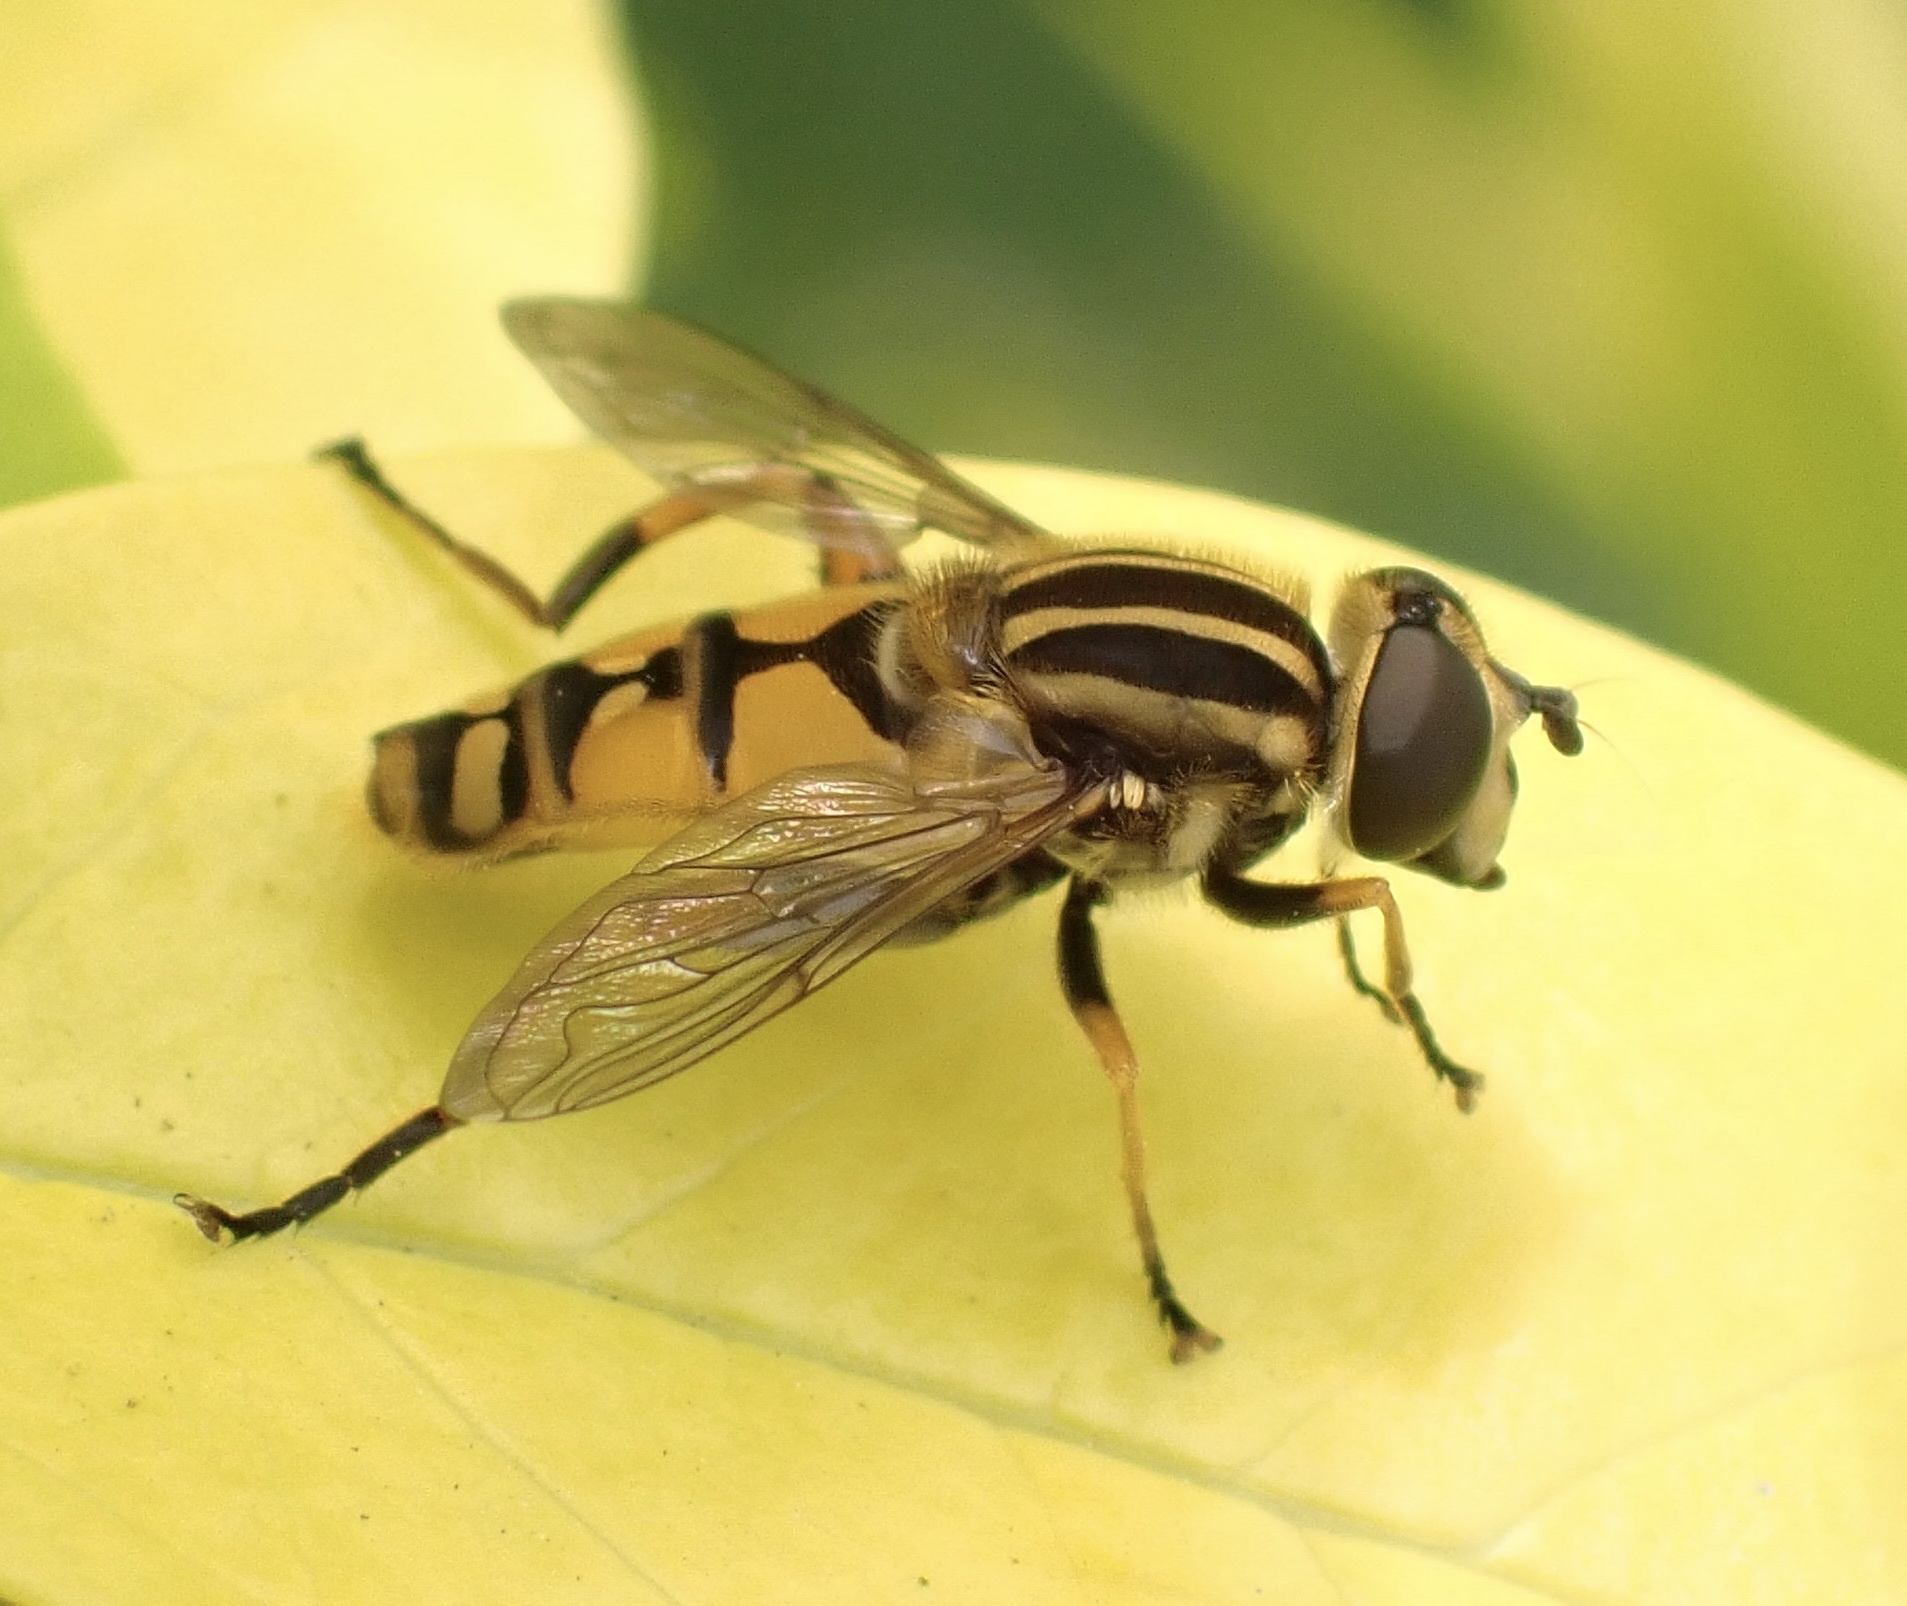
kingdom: Animalia
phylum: Arthropoda
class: Insecta
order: Diptera
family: Syrphidae
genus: Helophilus
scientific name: Helophilus pendulus
